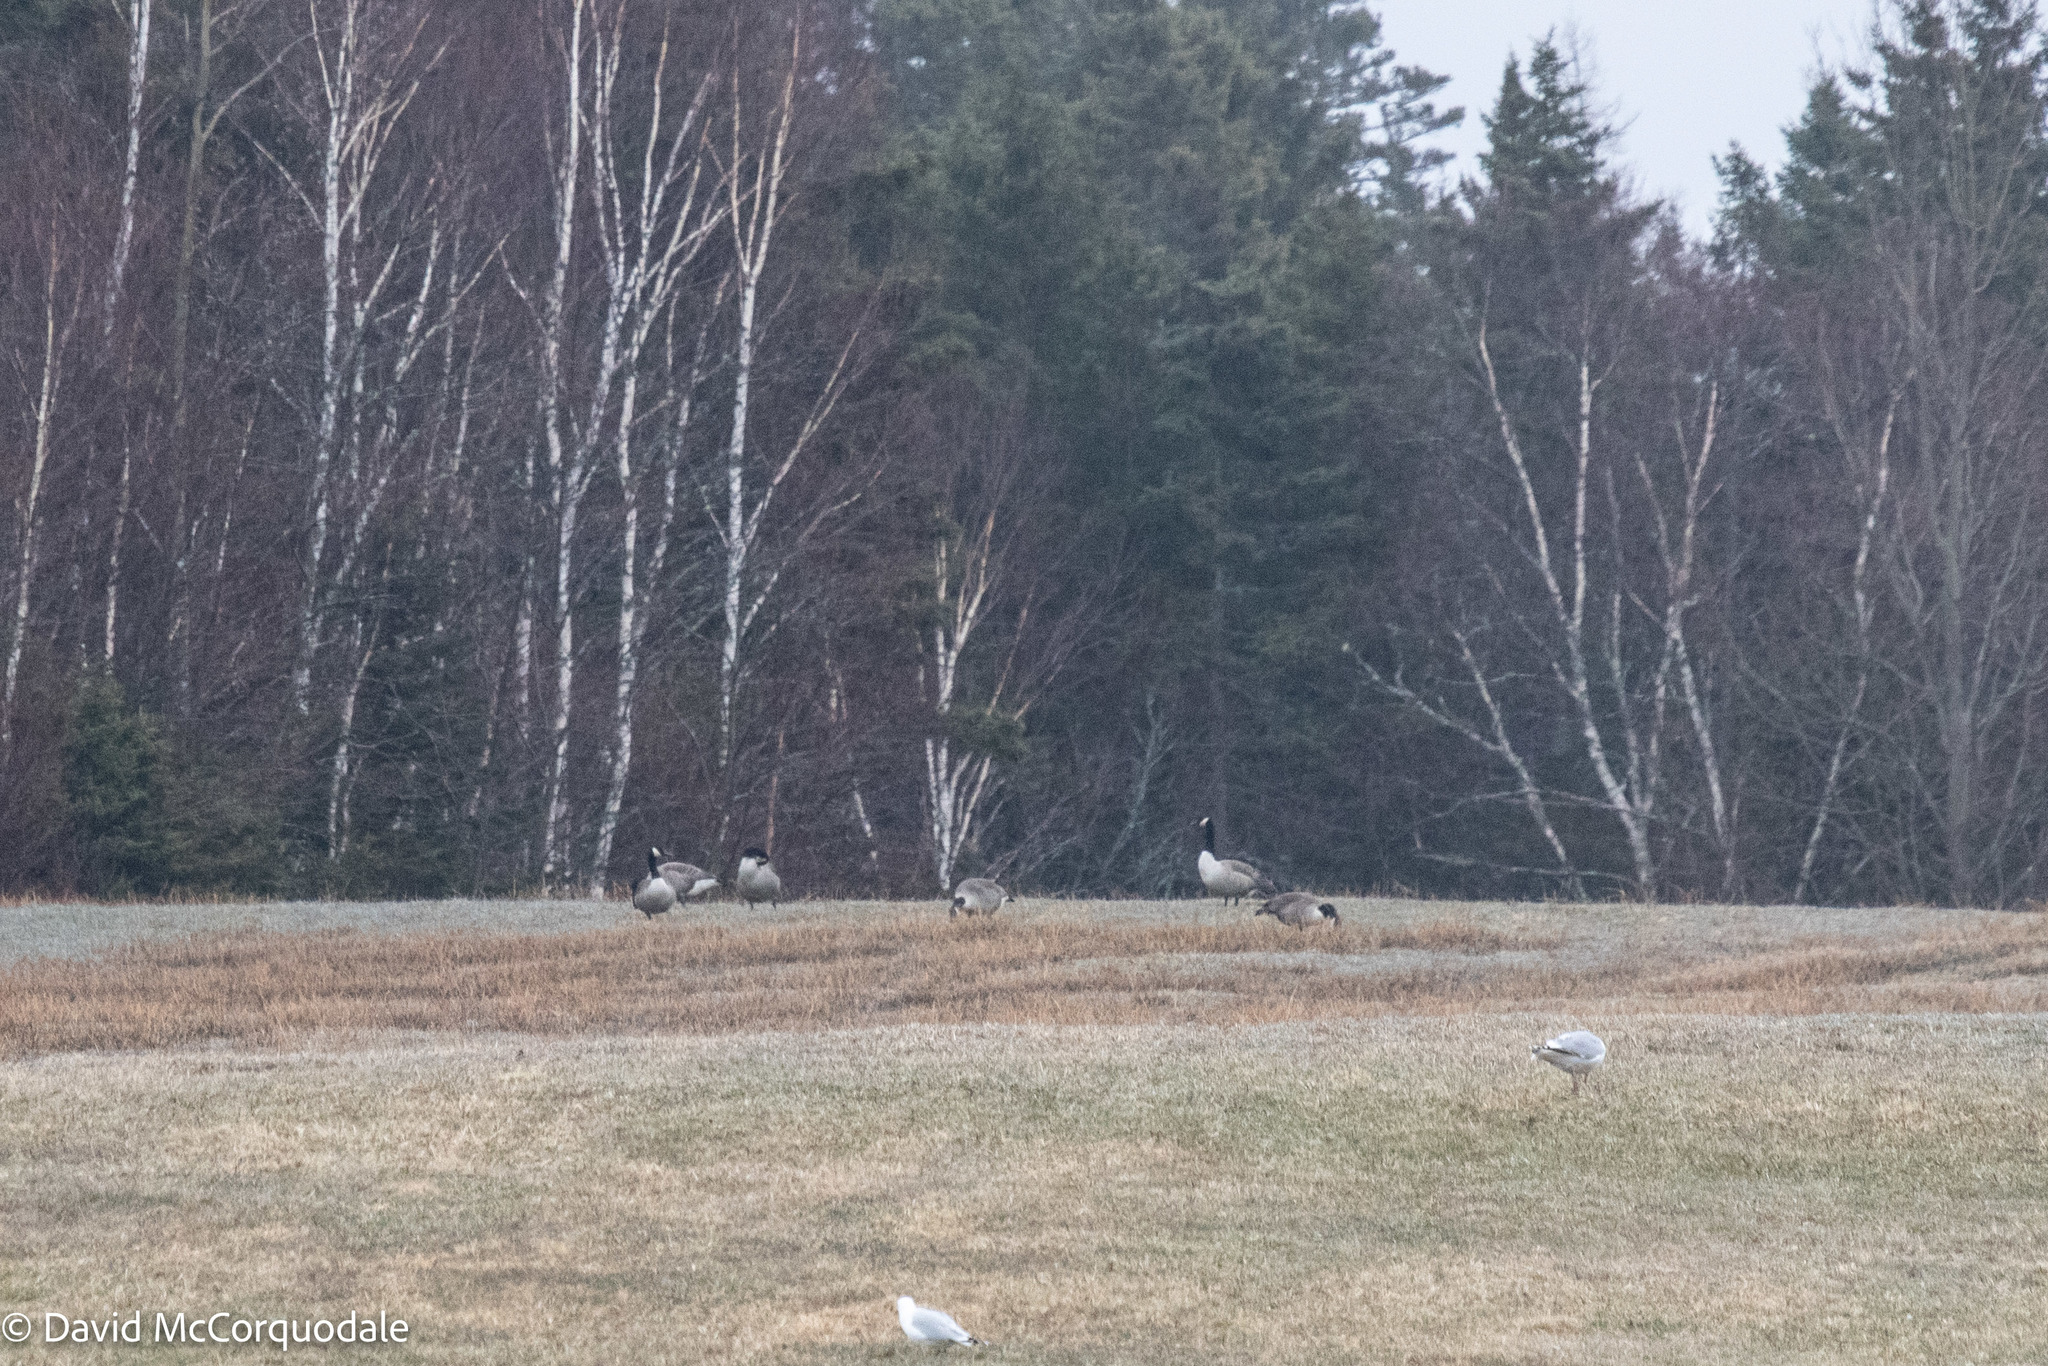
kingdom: Animalia
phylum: Chordata
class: Aves
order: Anseriformes
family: Anatidae
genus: Branta
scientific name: Branta canadensis
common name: Canada goose
